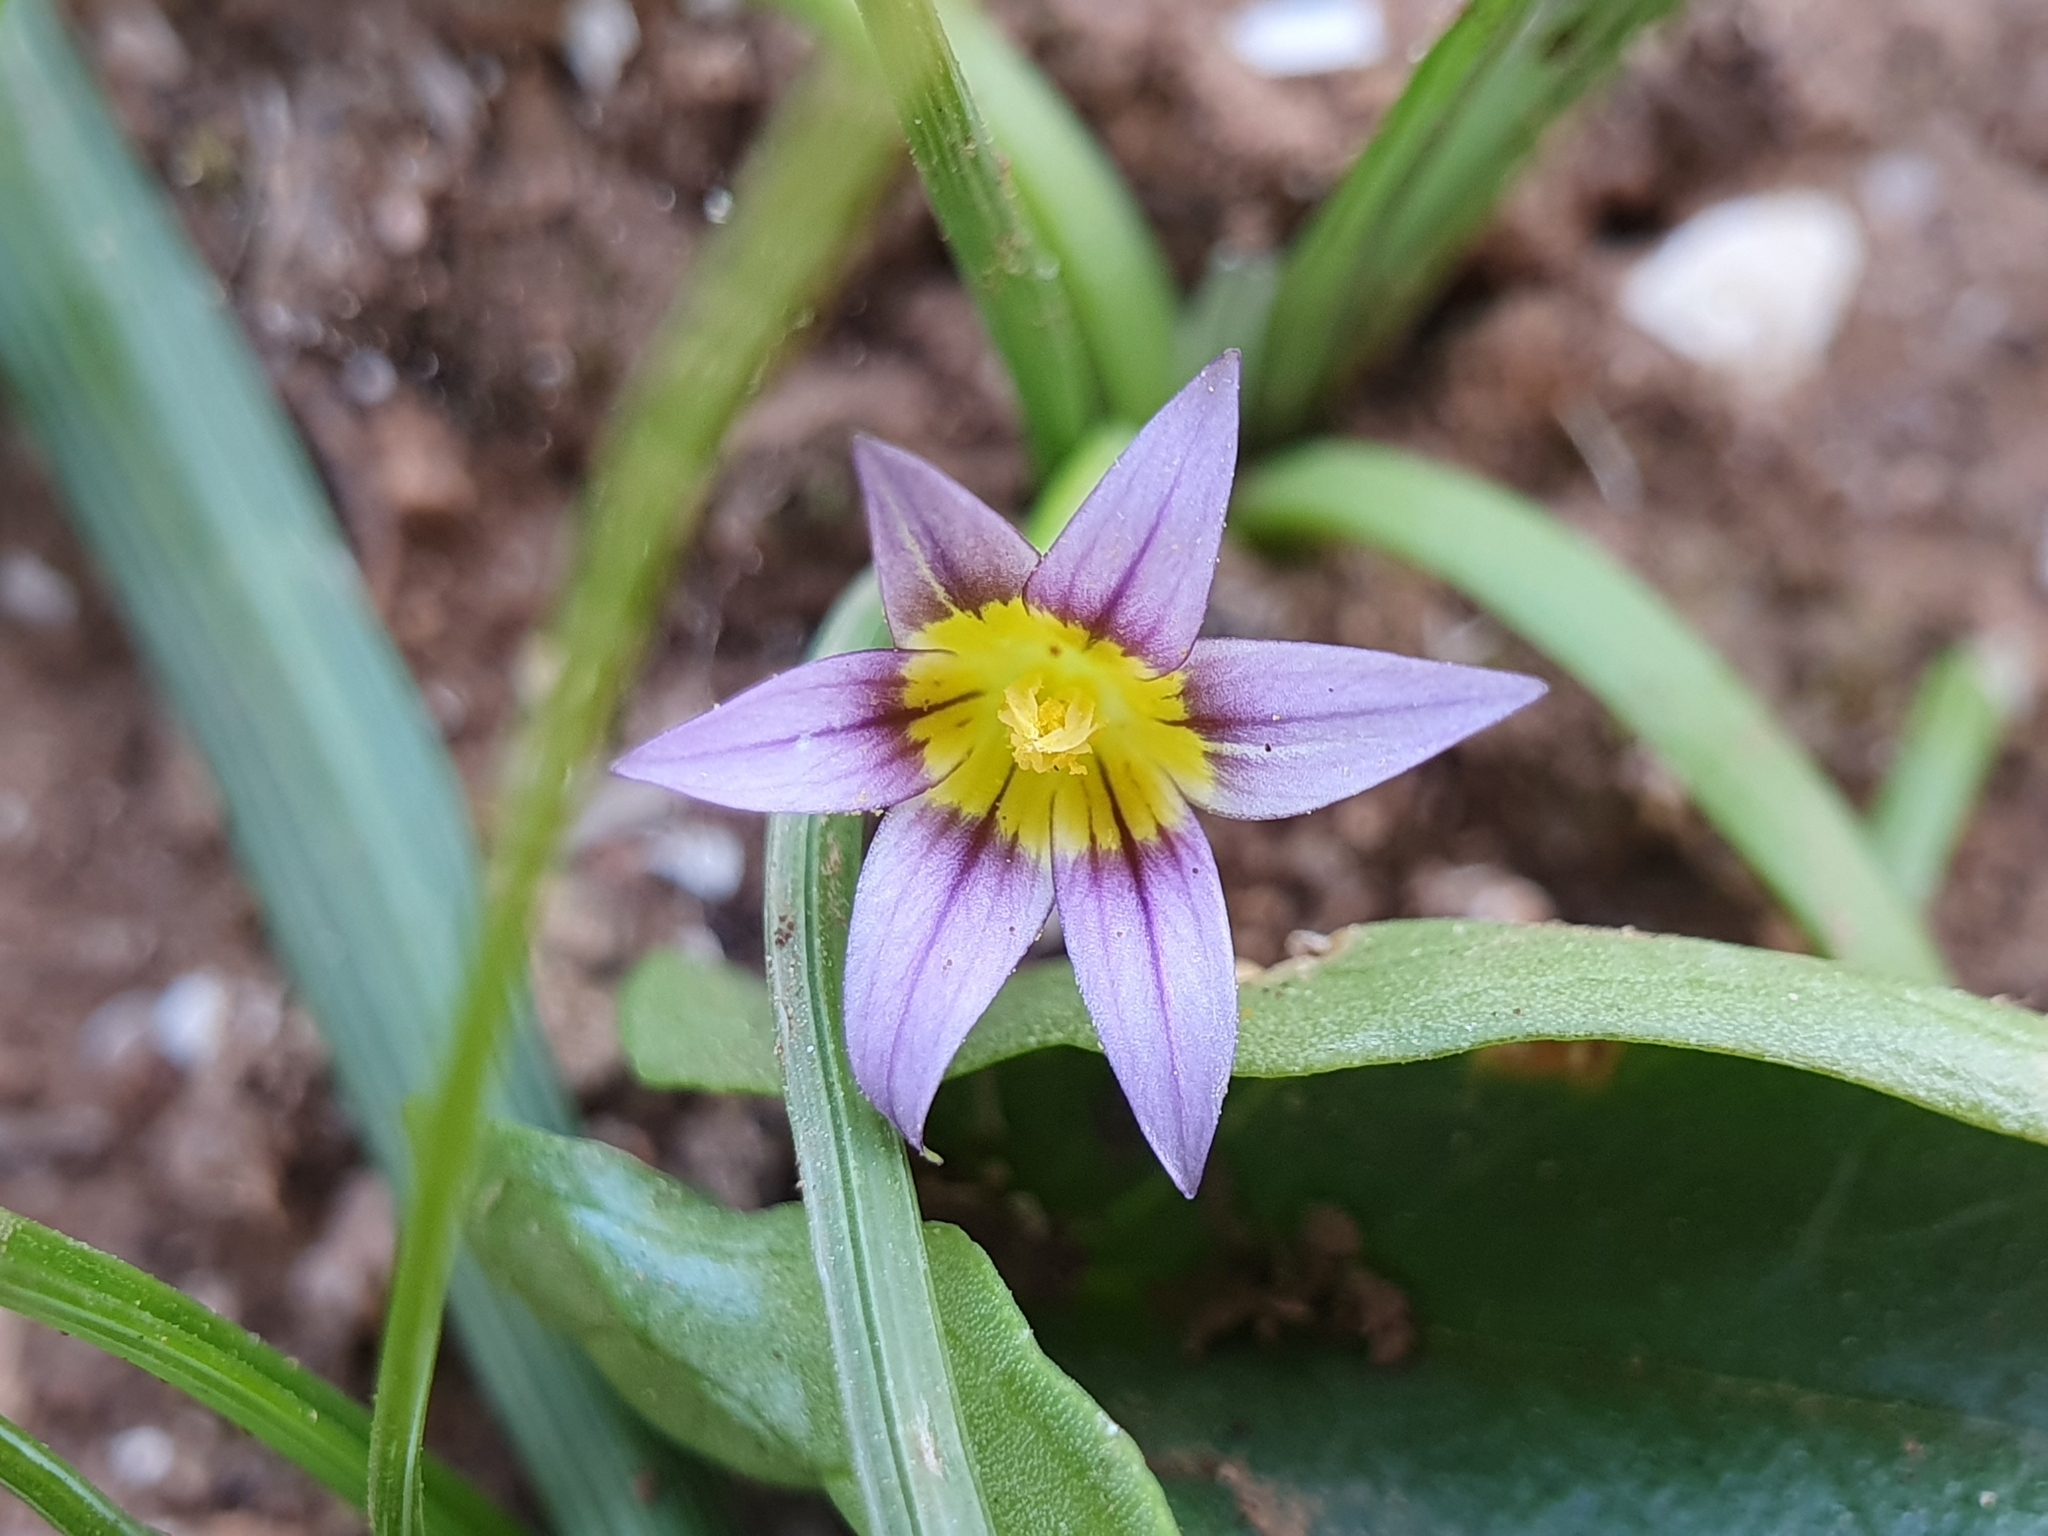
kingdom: Plantae
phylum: Tracheophyta
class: Liliopsida
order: Asparagales
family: Iridaceae
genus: Romulea
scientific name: Romulea ramiflora
